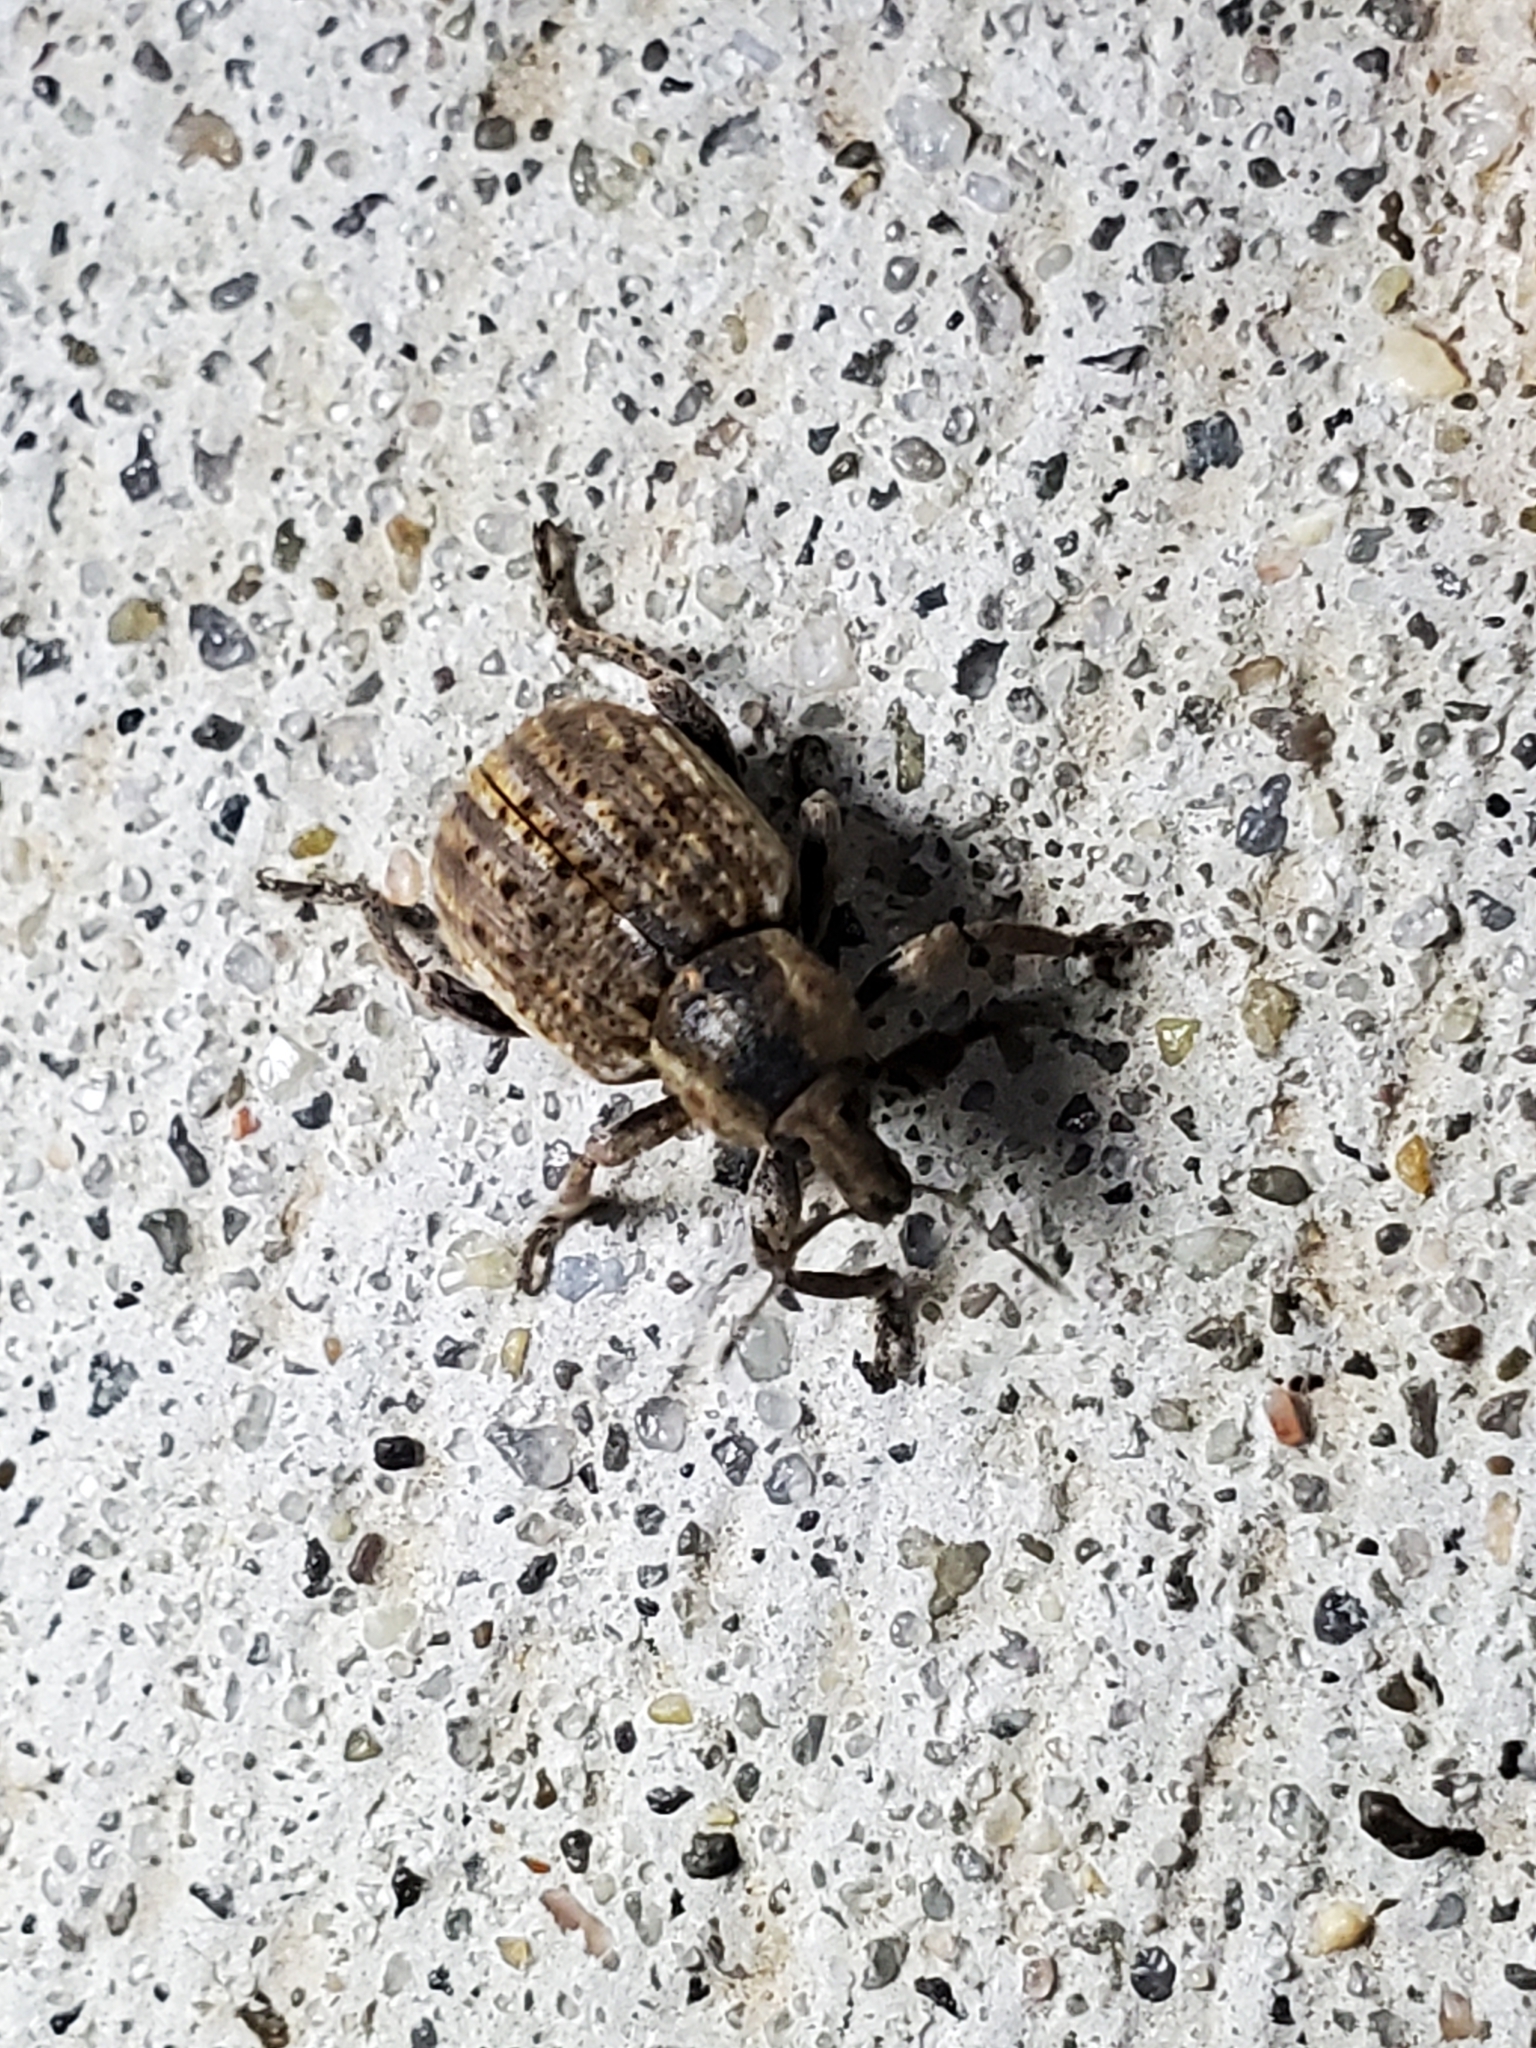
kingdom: Animalia
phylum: Arthropoda
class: Insecta
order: Coleoptera
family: Curculionidae
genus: Brachypera
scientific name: Brachypera zoilus
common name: Clover leaf weevil
